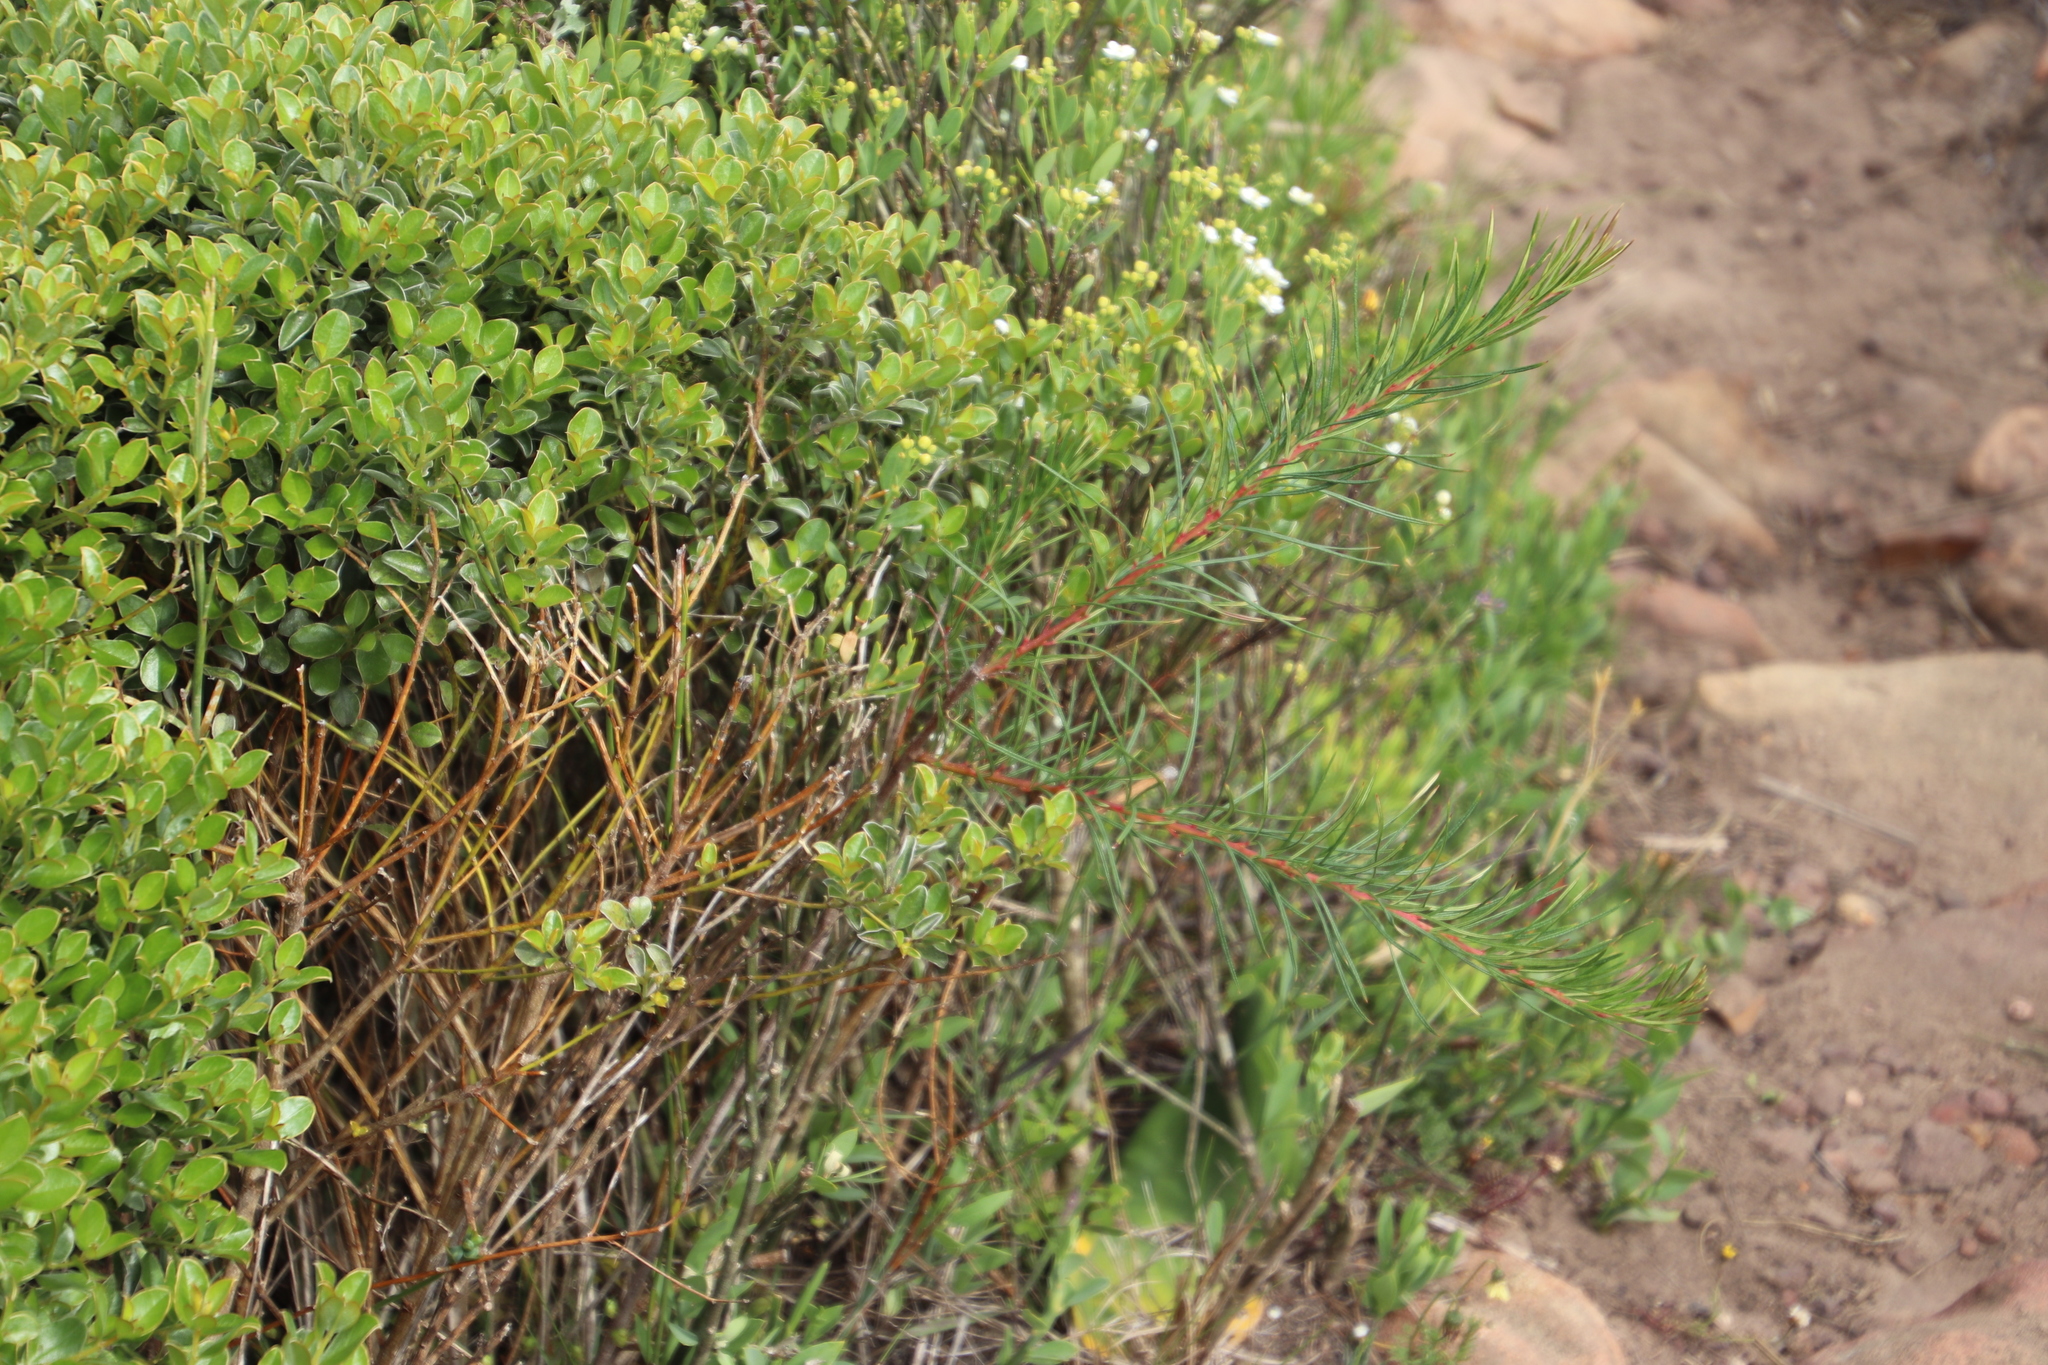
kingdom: Plantae
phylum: Tracheophyta
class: Magnoliopsida
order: Sapindales
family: Anacardiaceae
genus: Searsia
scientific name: Searsia rosmarinifolia
